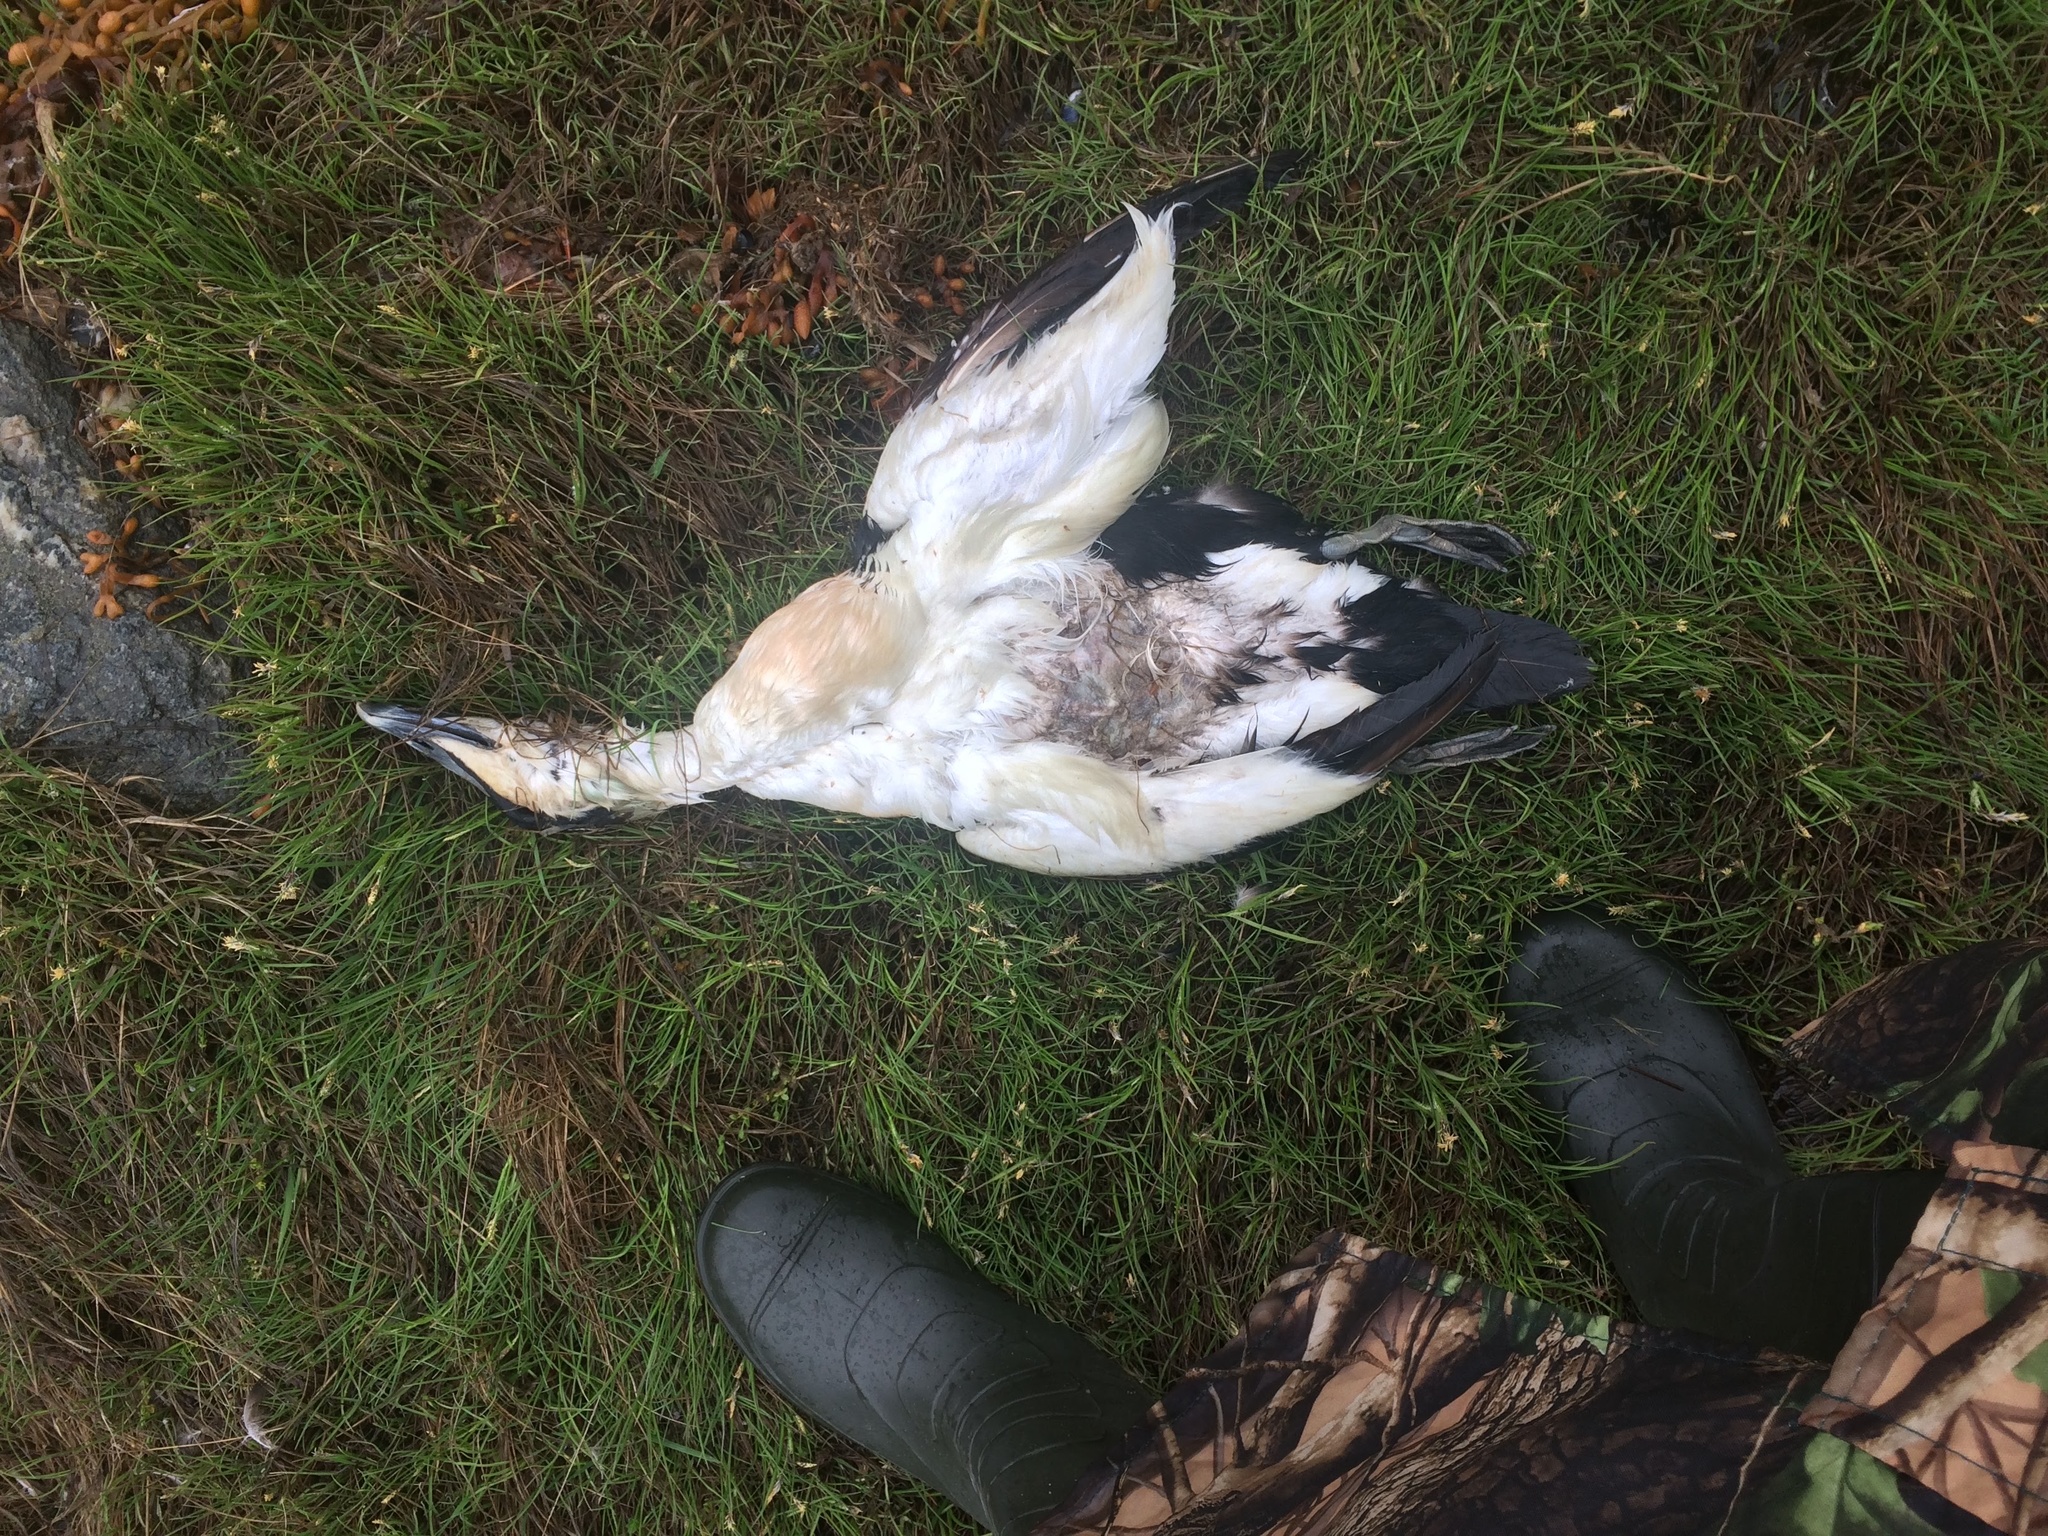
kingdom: Animalia
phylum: Chordata
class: Aves
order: Anseriformes
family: Anatidae
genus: Somateria
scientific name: Somateria mollissima
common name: Common eider
